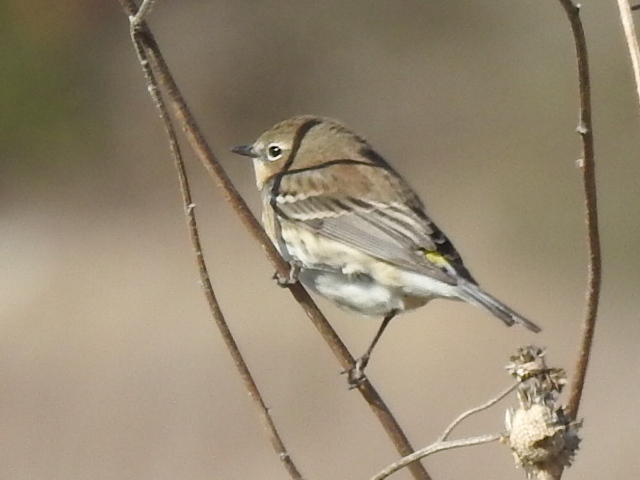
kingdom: Animalia
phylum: Chordata
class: Aves
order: Passeriformes
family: Parulidae
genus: Setophaga
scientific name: Setophaga coronata
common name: Myrtle warbler
